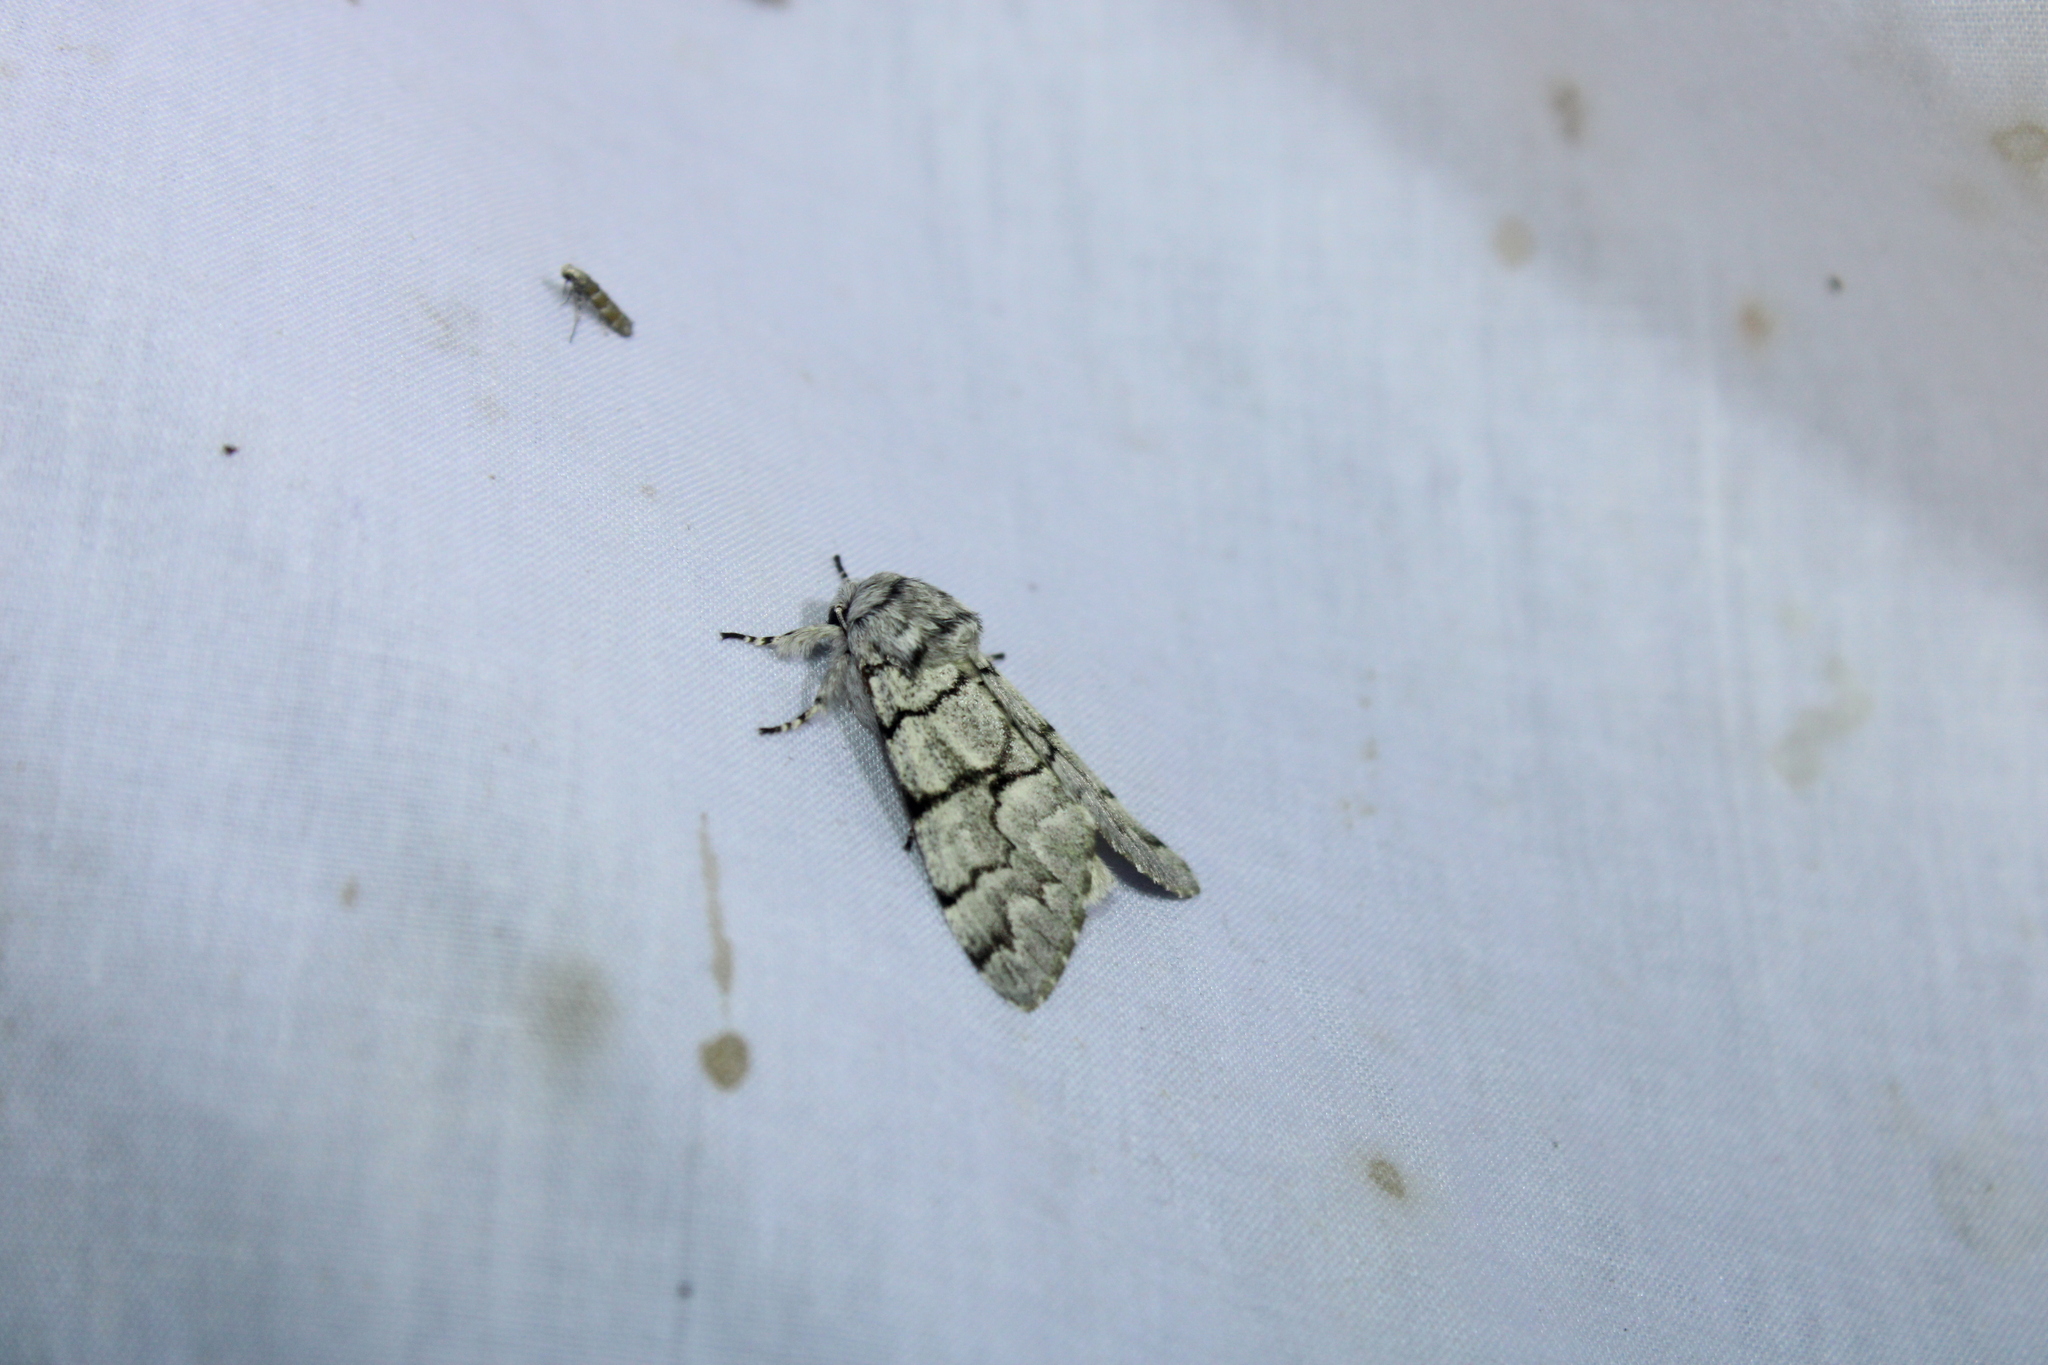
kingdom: Animalia
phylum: Arthropoda
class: Insecta
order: Lepidoptera
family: Noctuidae
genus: Panthea
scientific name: Panthea furcilla
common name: Eastern panthea moth
